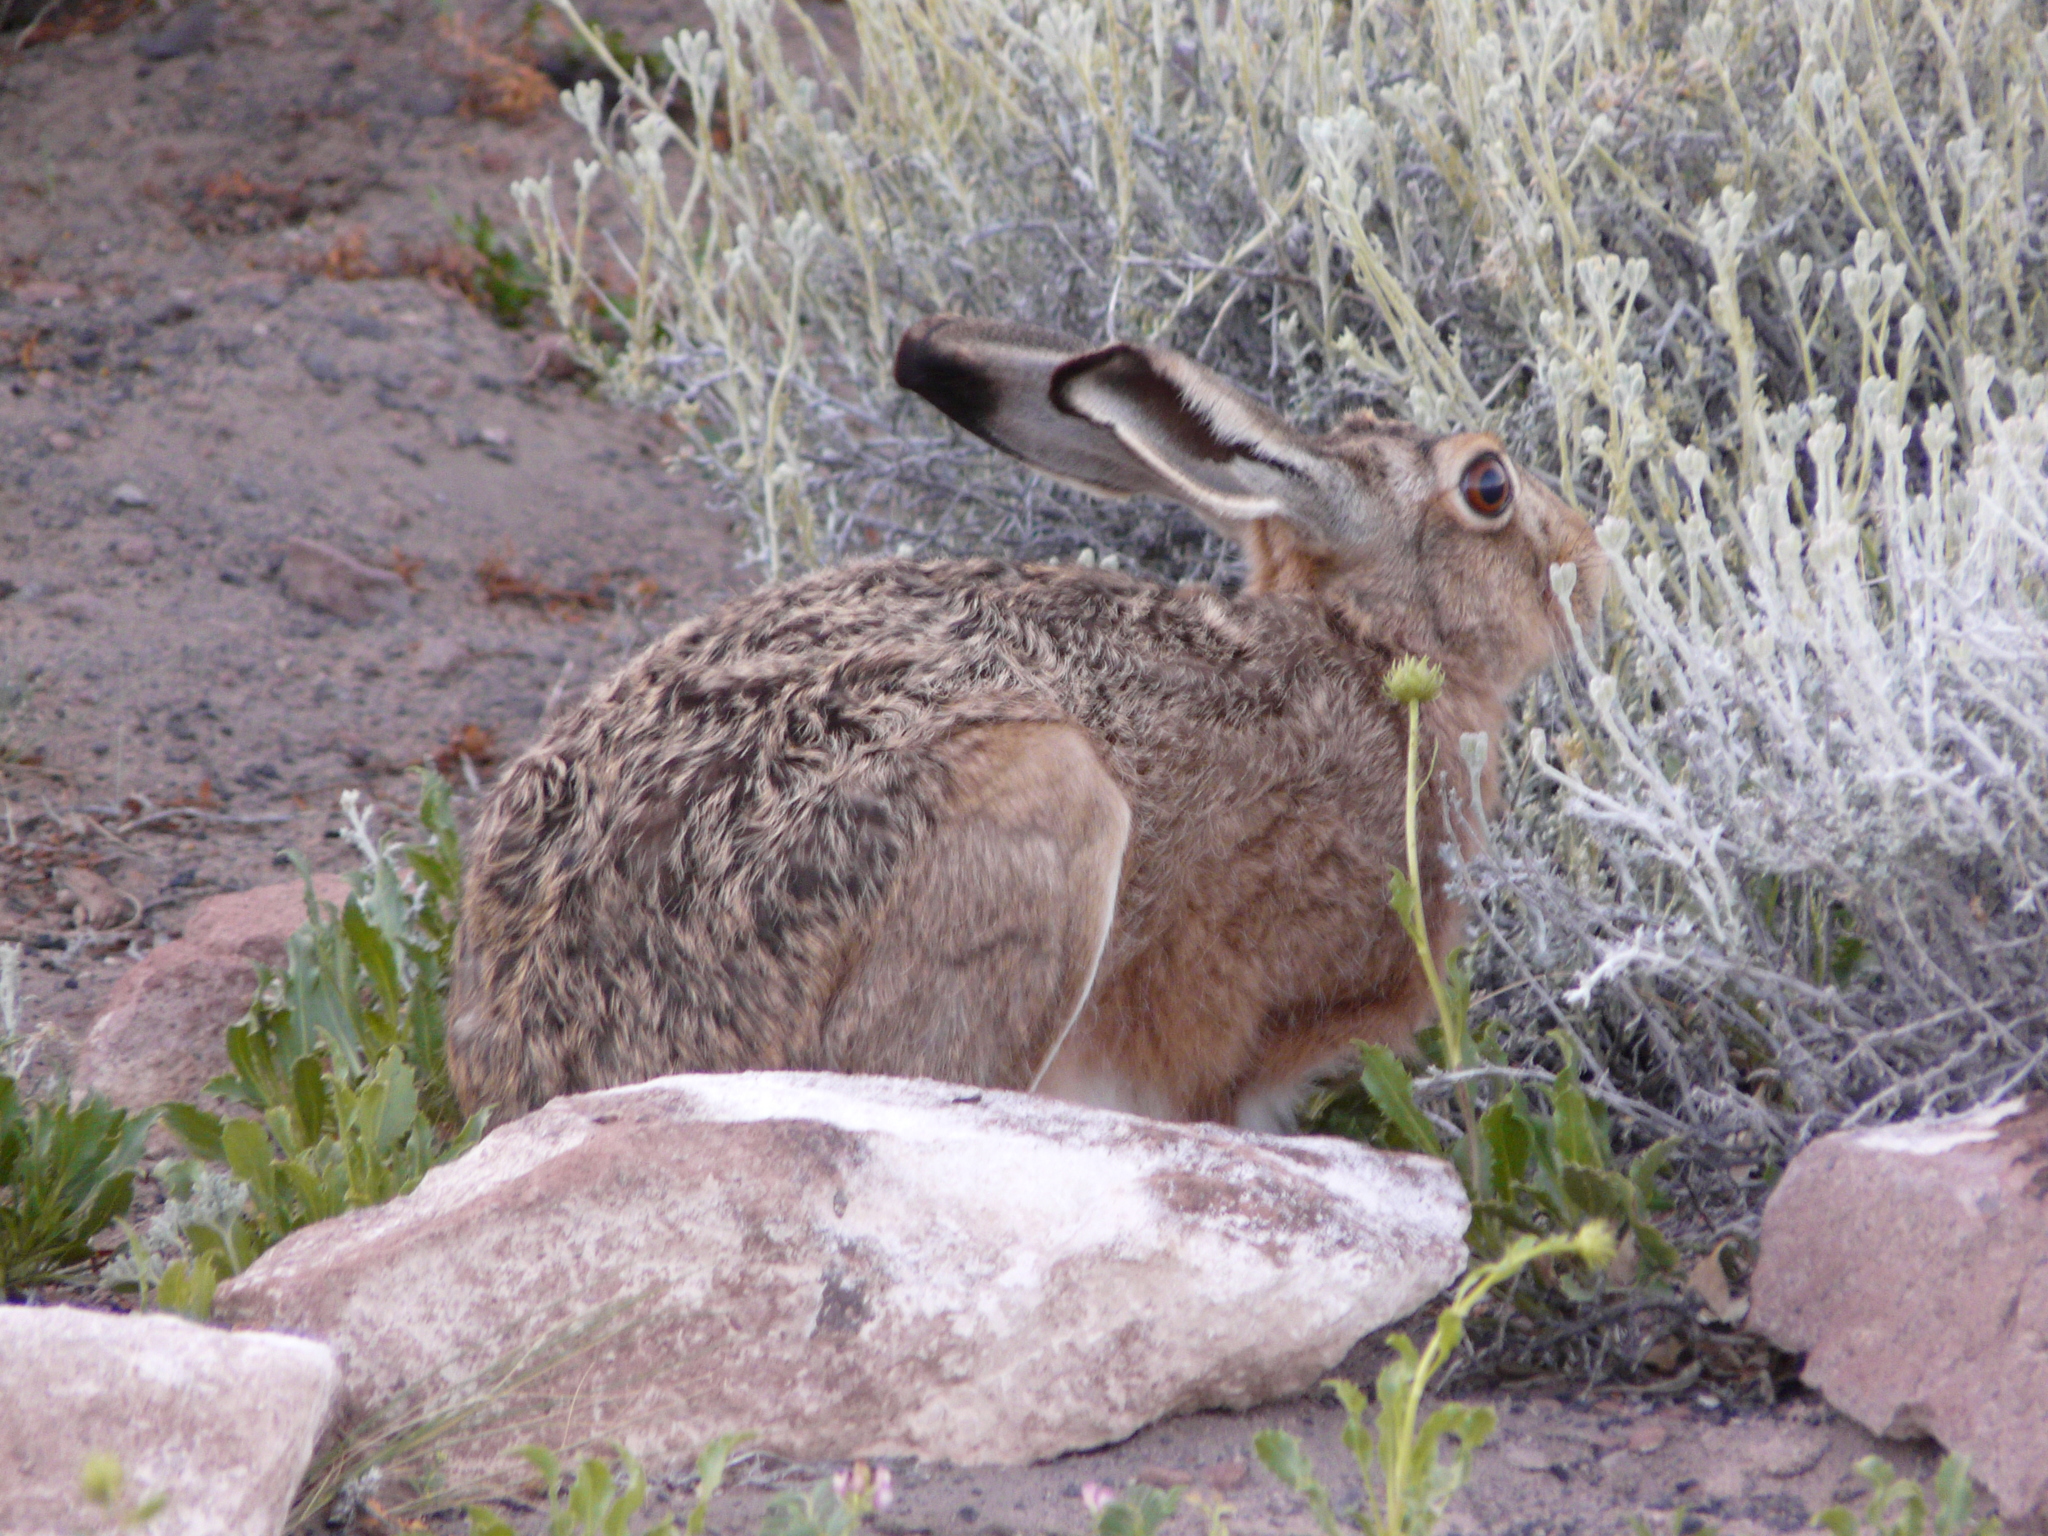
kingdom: Animalia
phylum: Chordata
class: Mammalia
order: Lagomorpha
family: Leporidae
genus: Lepus
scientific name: Lepus europaeus
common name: European hare
